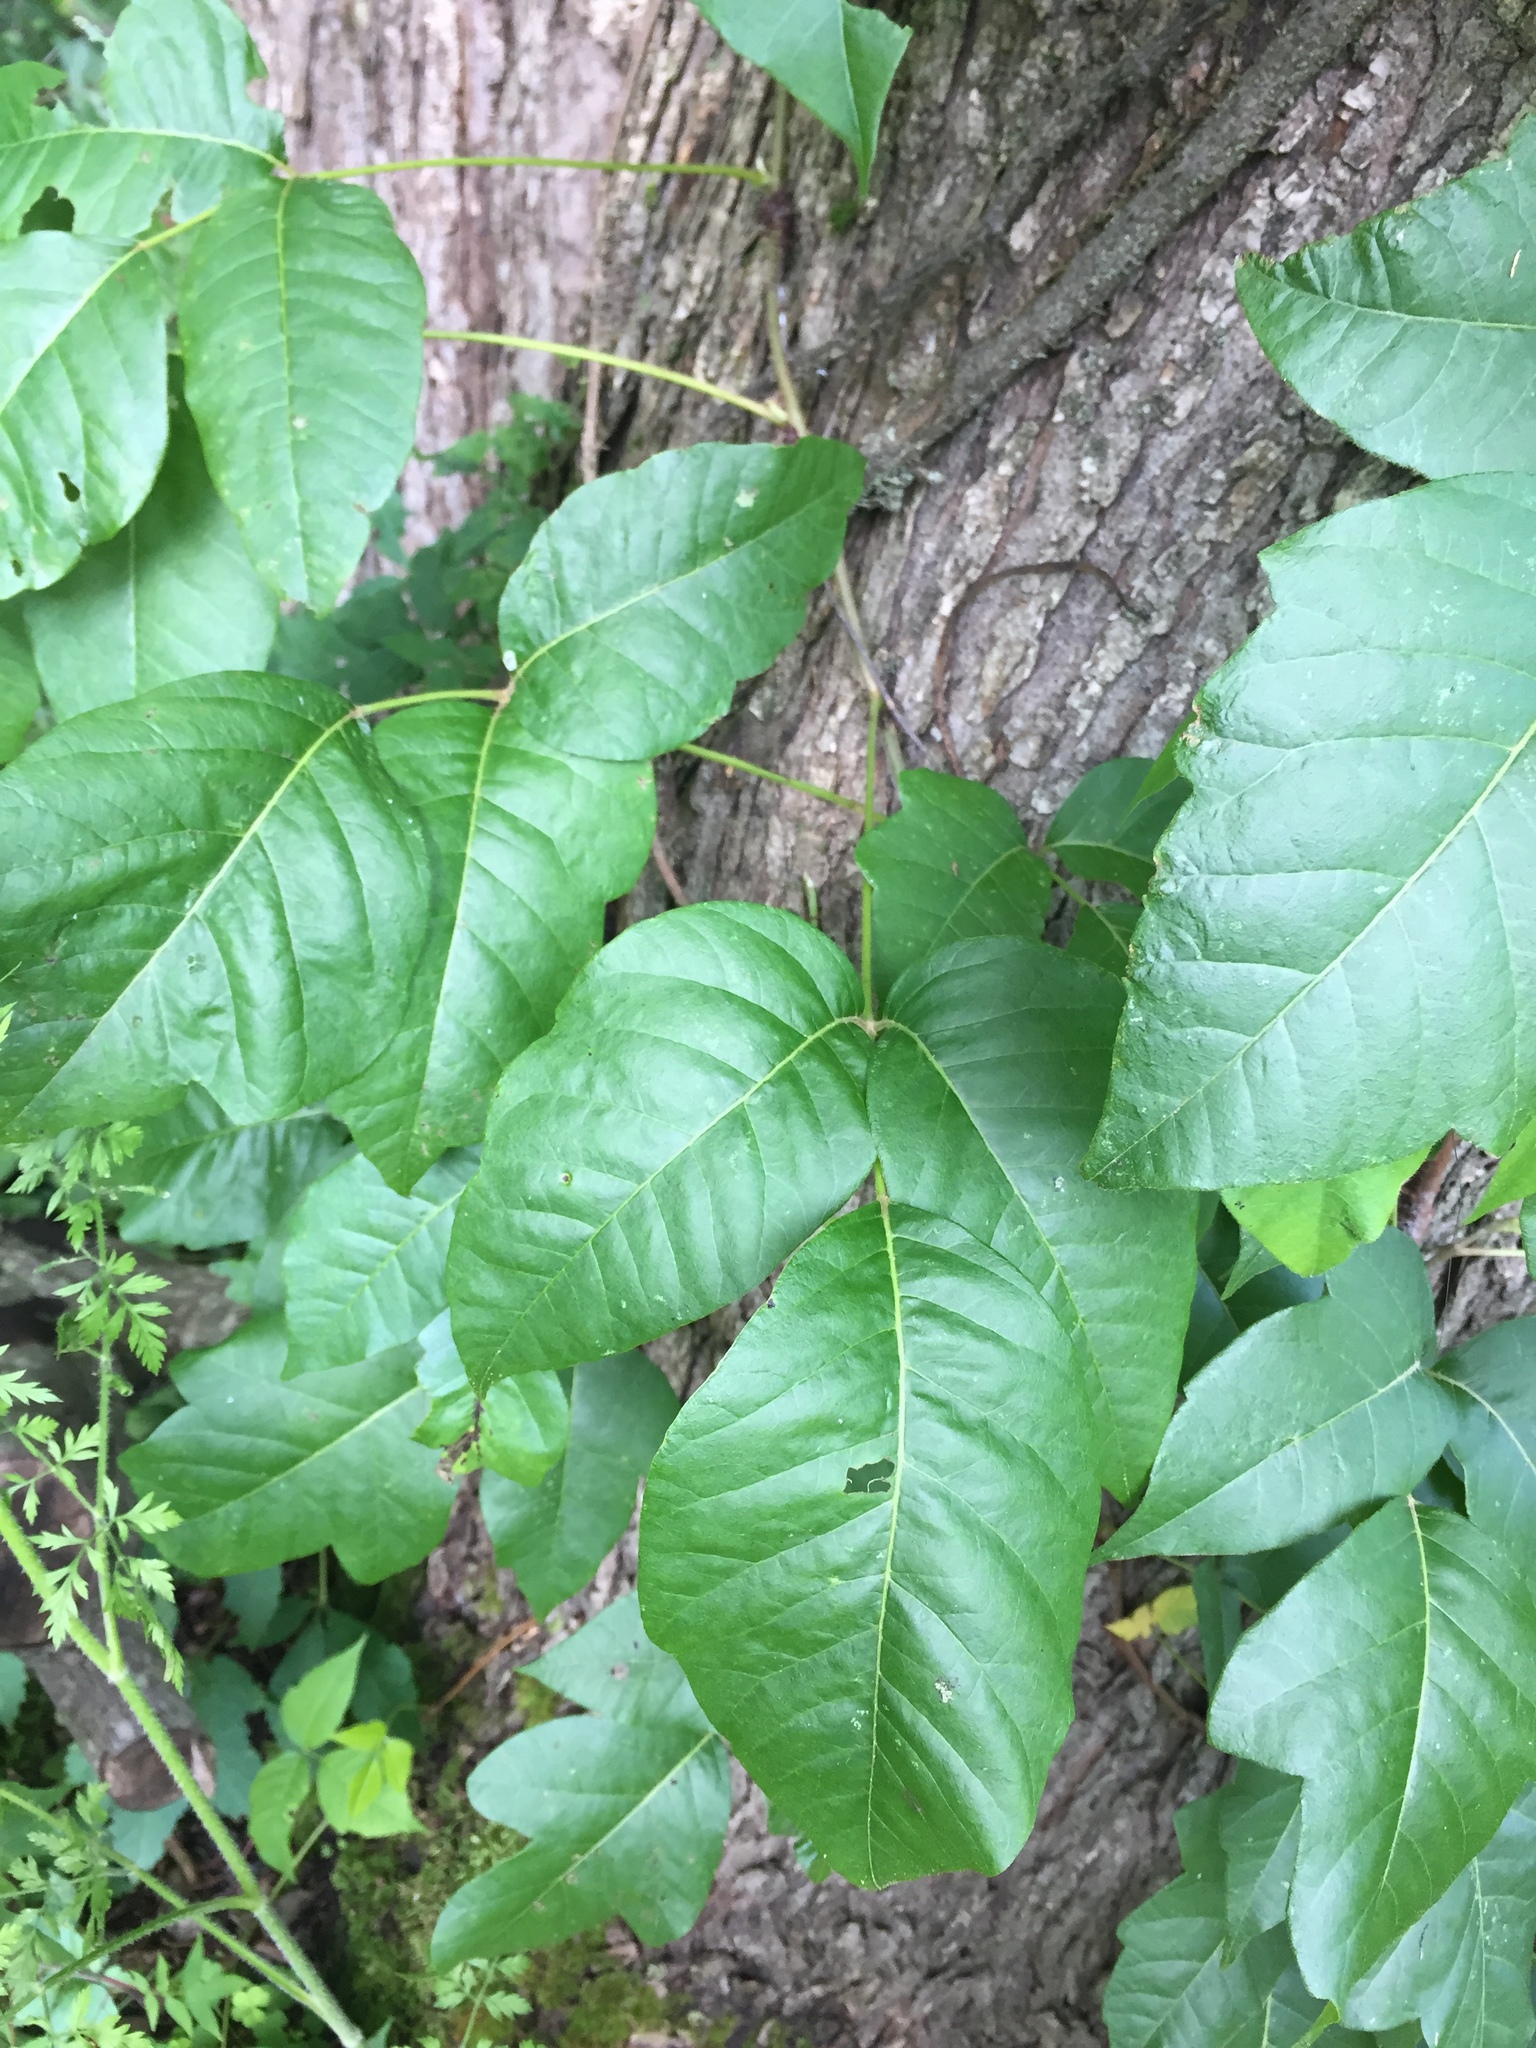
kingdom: Plantae
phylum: Tracheophyta
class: Magnoliopsida
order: Sapindales
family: Anacardiaceae
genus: Toxicodendron
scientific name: Toxicodendron radicans
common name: Poison ivy
